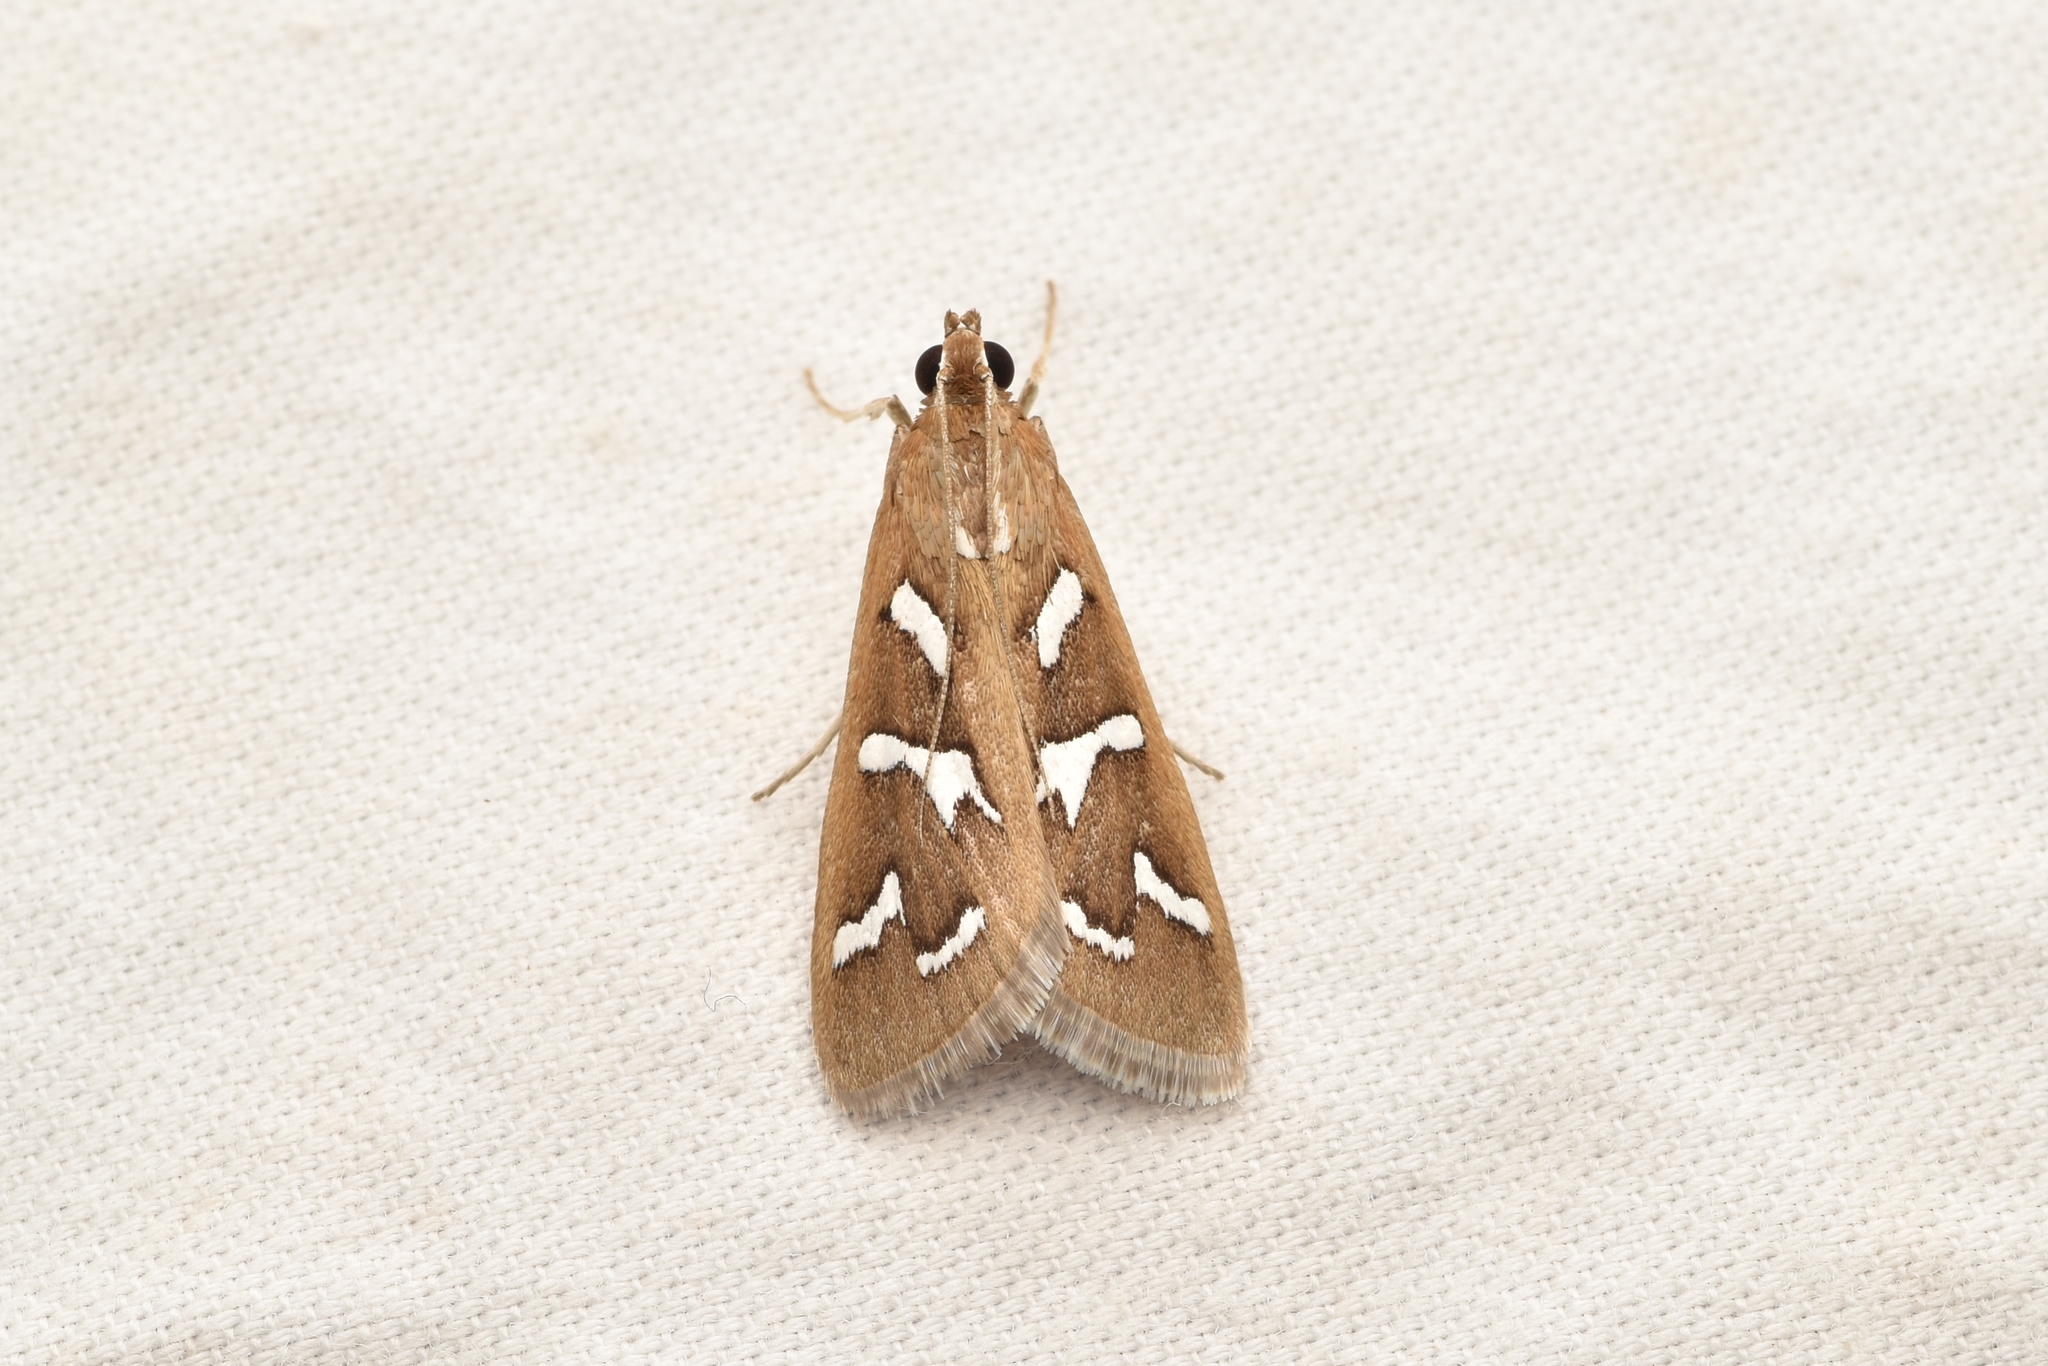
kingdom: Animalia
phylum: Arthropoda
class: Insecta
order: Lepidoptera
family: Crambidae
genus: Diastictis
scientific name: Diastictis fracturalis
